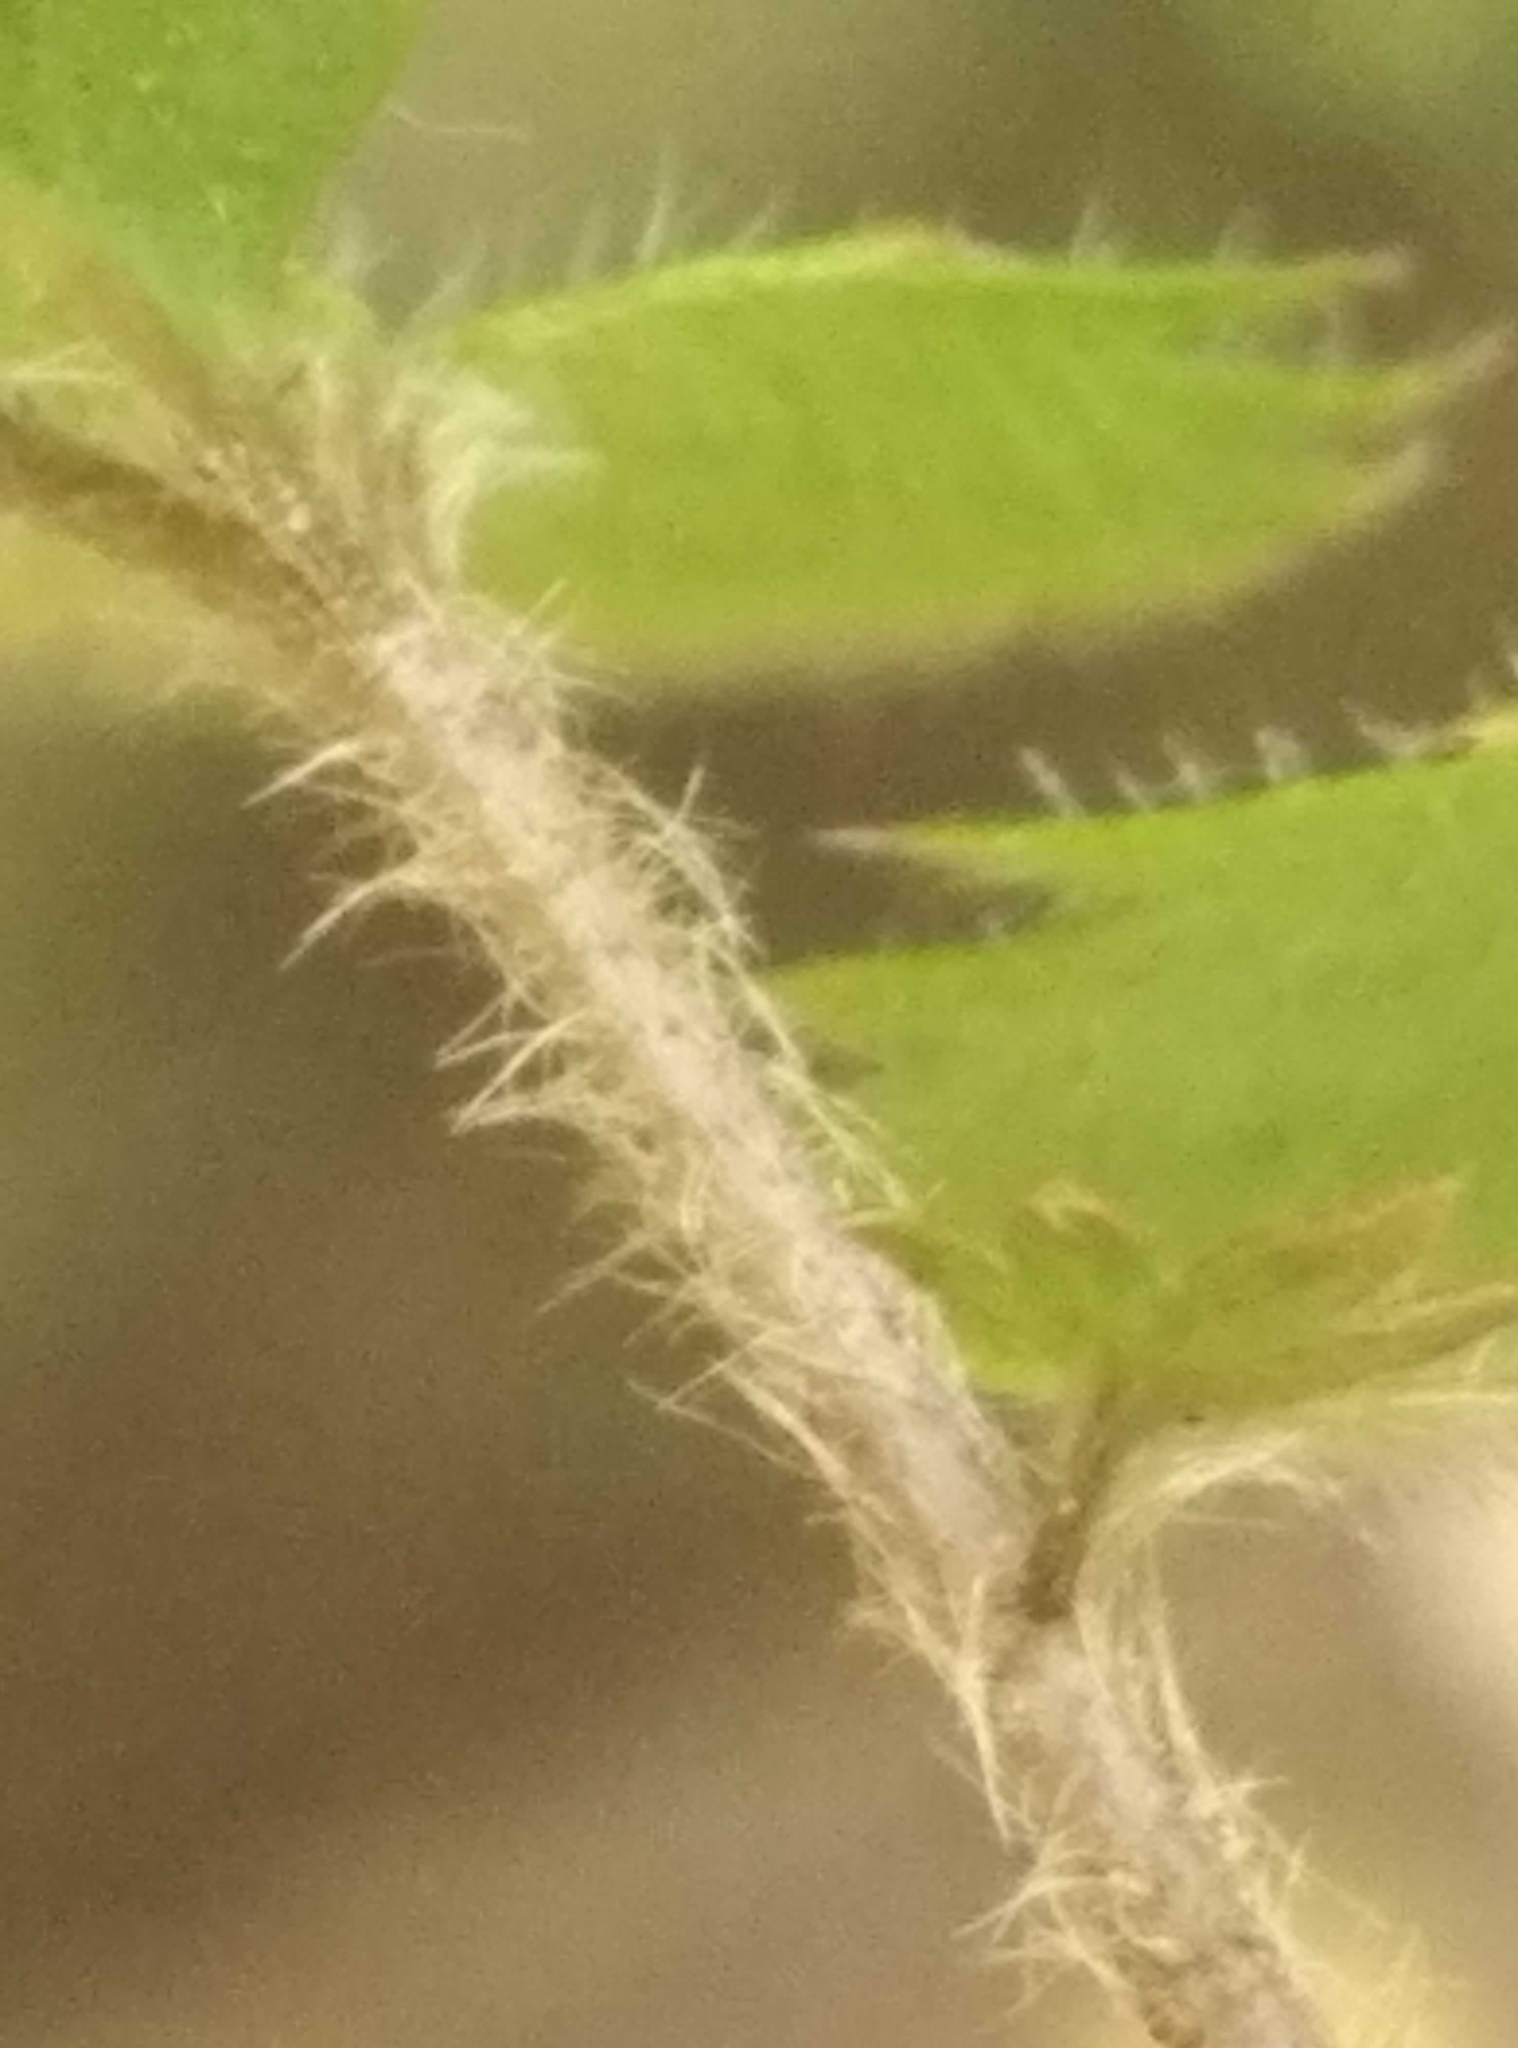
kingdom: Plantae
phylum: Tracheophyta
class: Magnoliopsida
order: Rosales
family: Rosaceae
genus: Acaena
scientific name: Acaena juvenca
